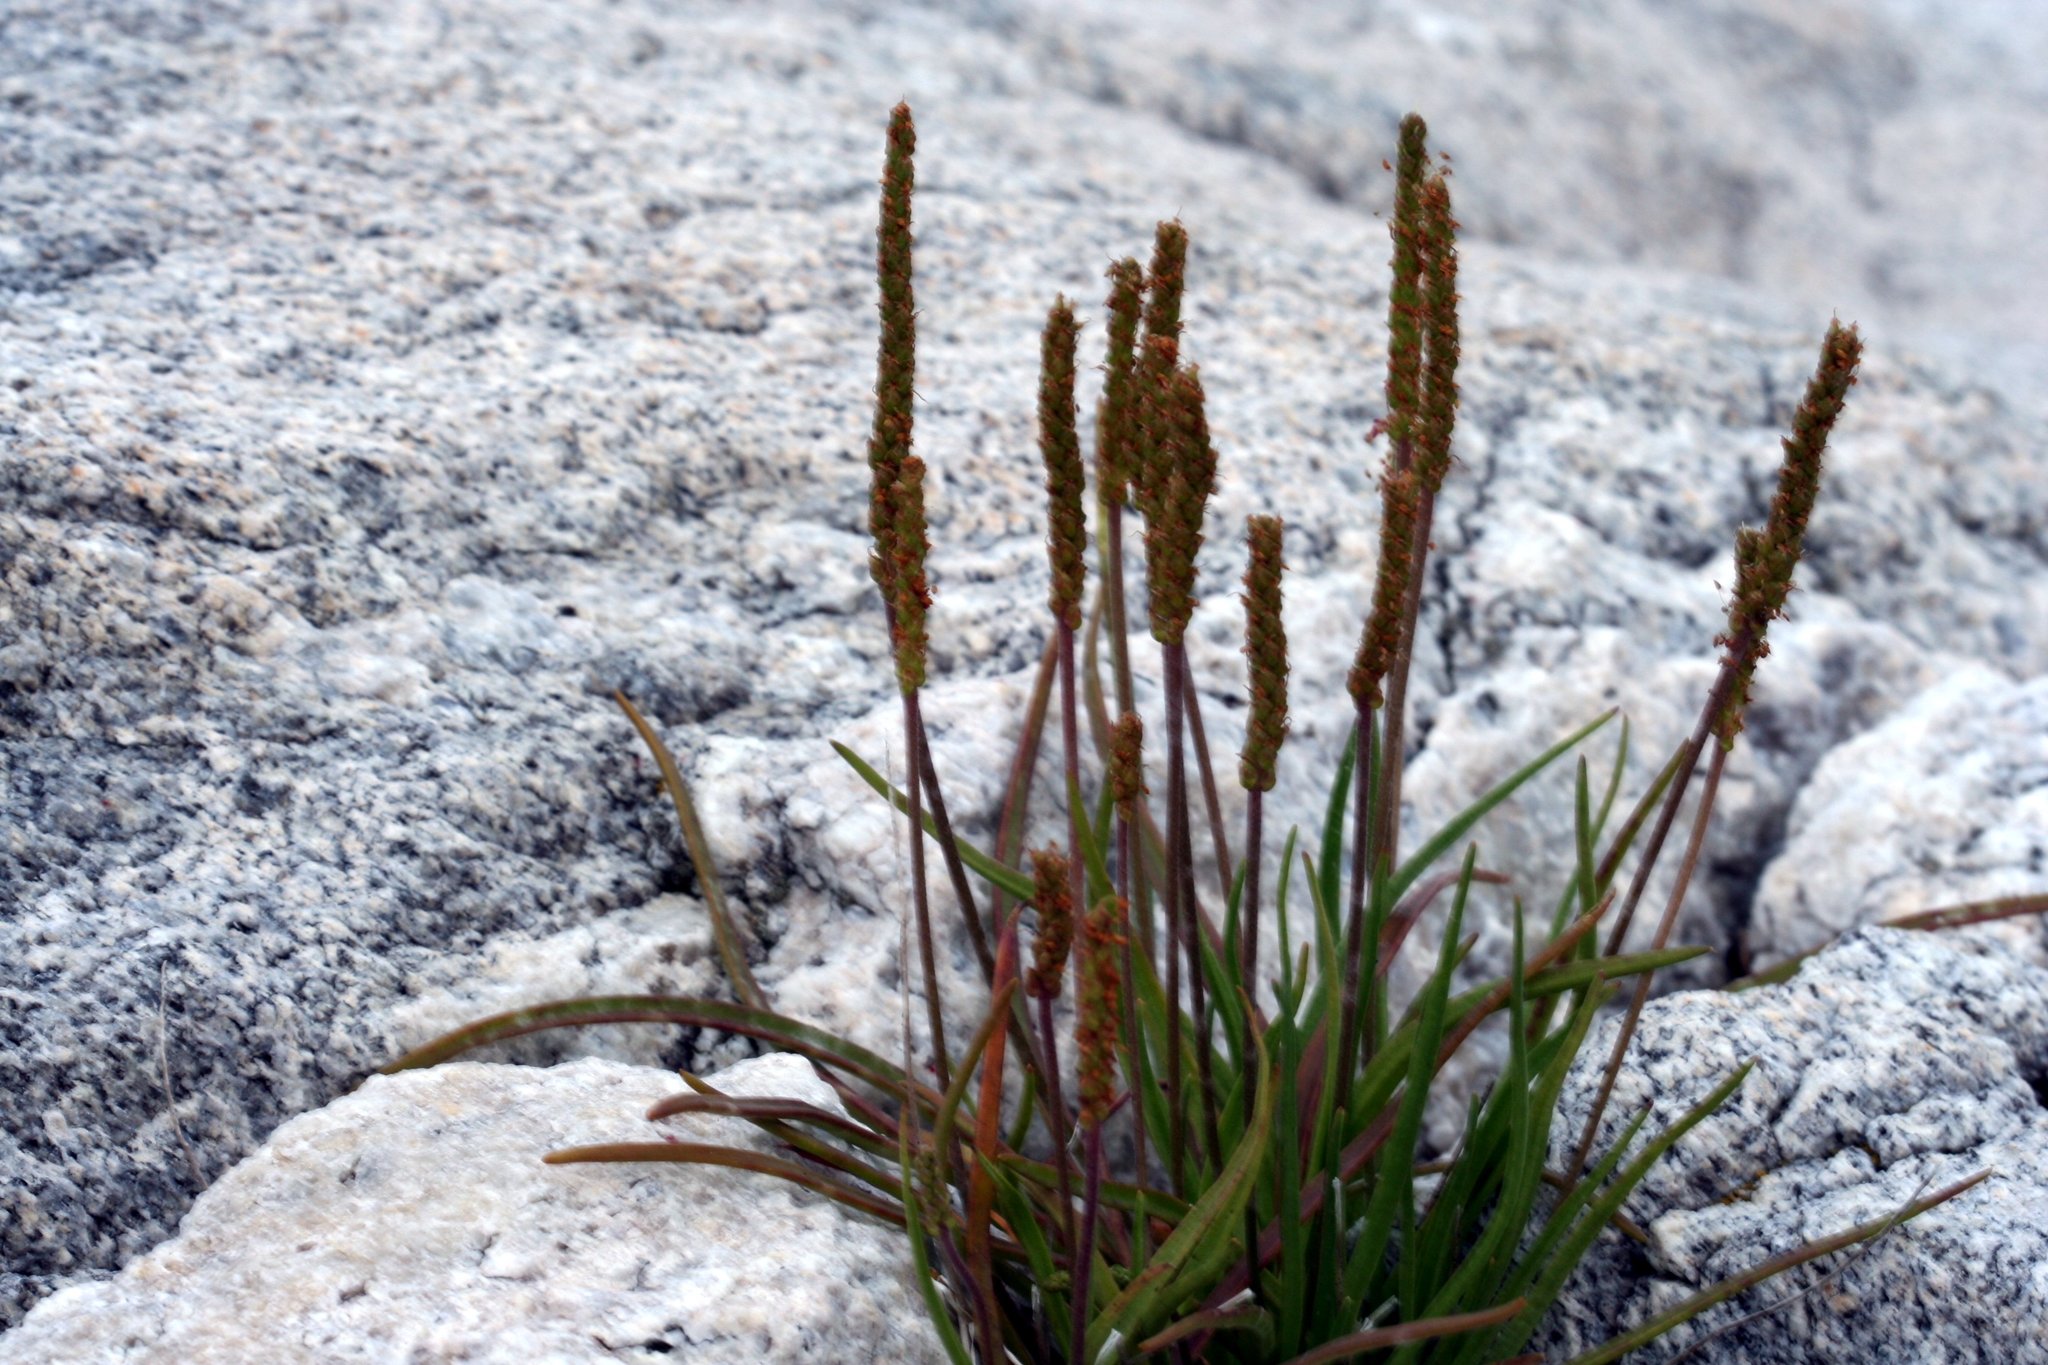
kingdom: Plantae
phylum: Tracheophyta
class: Magnoliopsida
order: Lamiales
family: Plantaginaceae
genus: Plantago
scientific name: Plantago maritima
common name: Sea plantain
